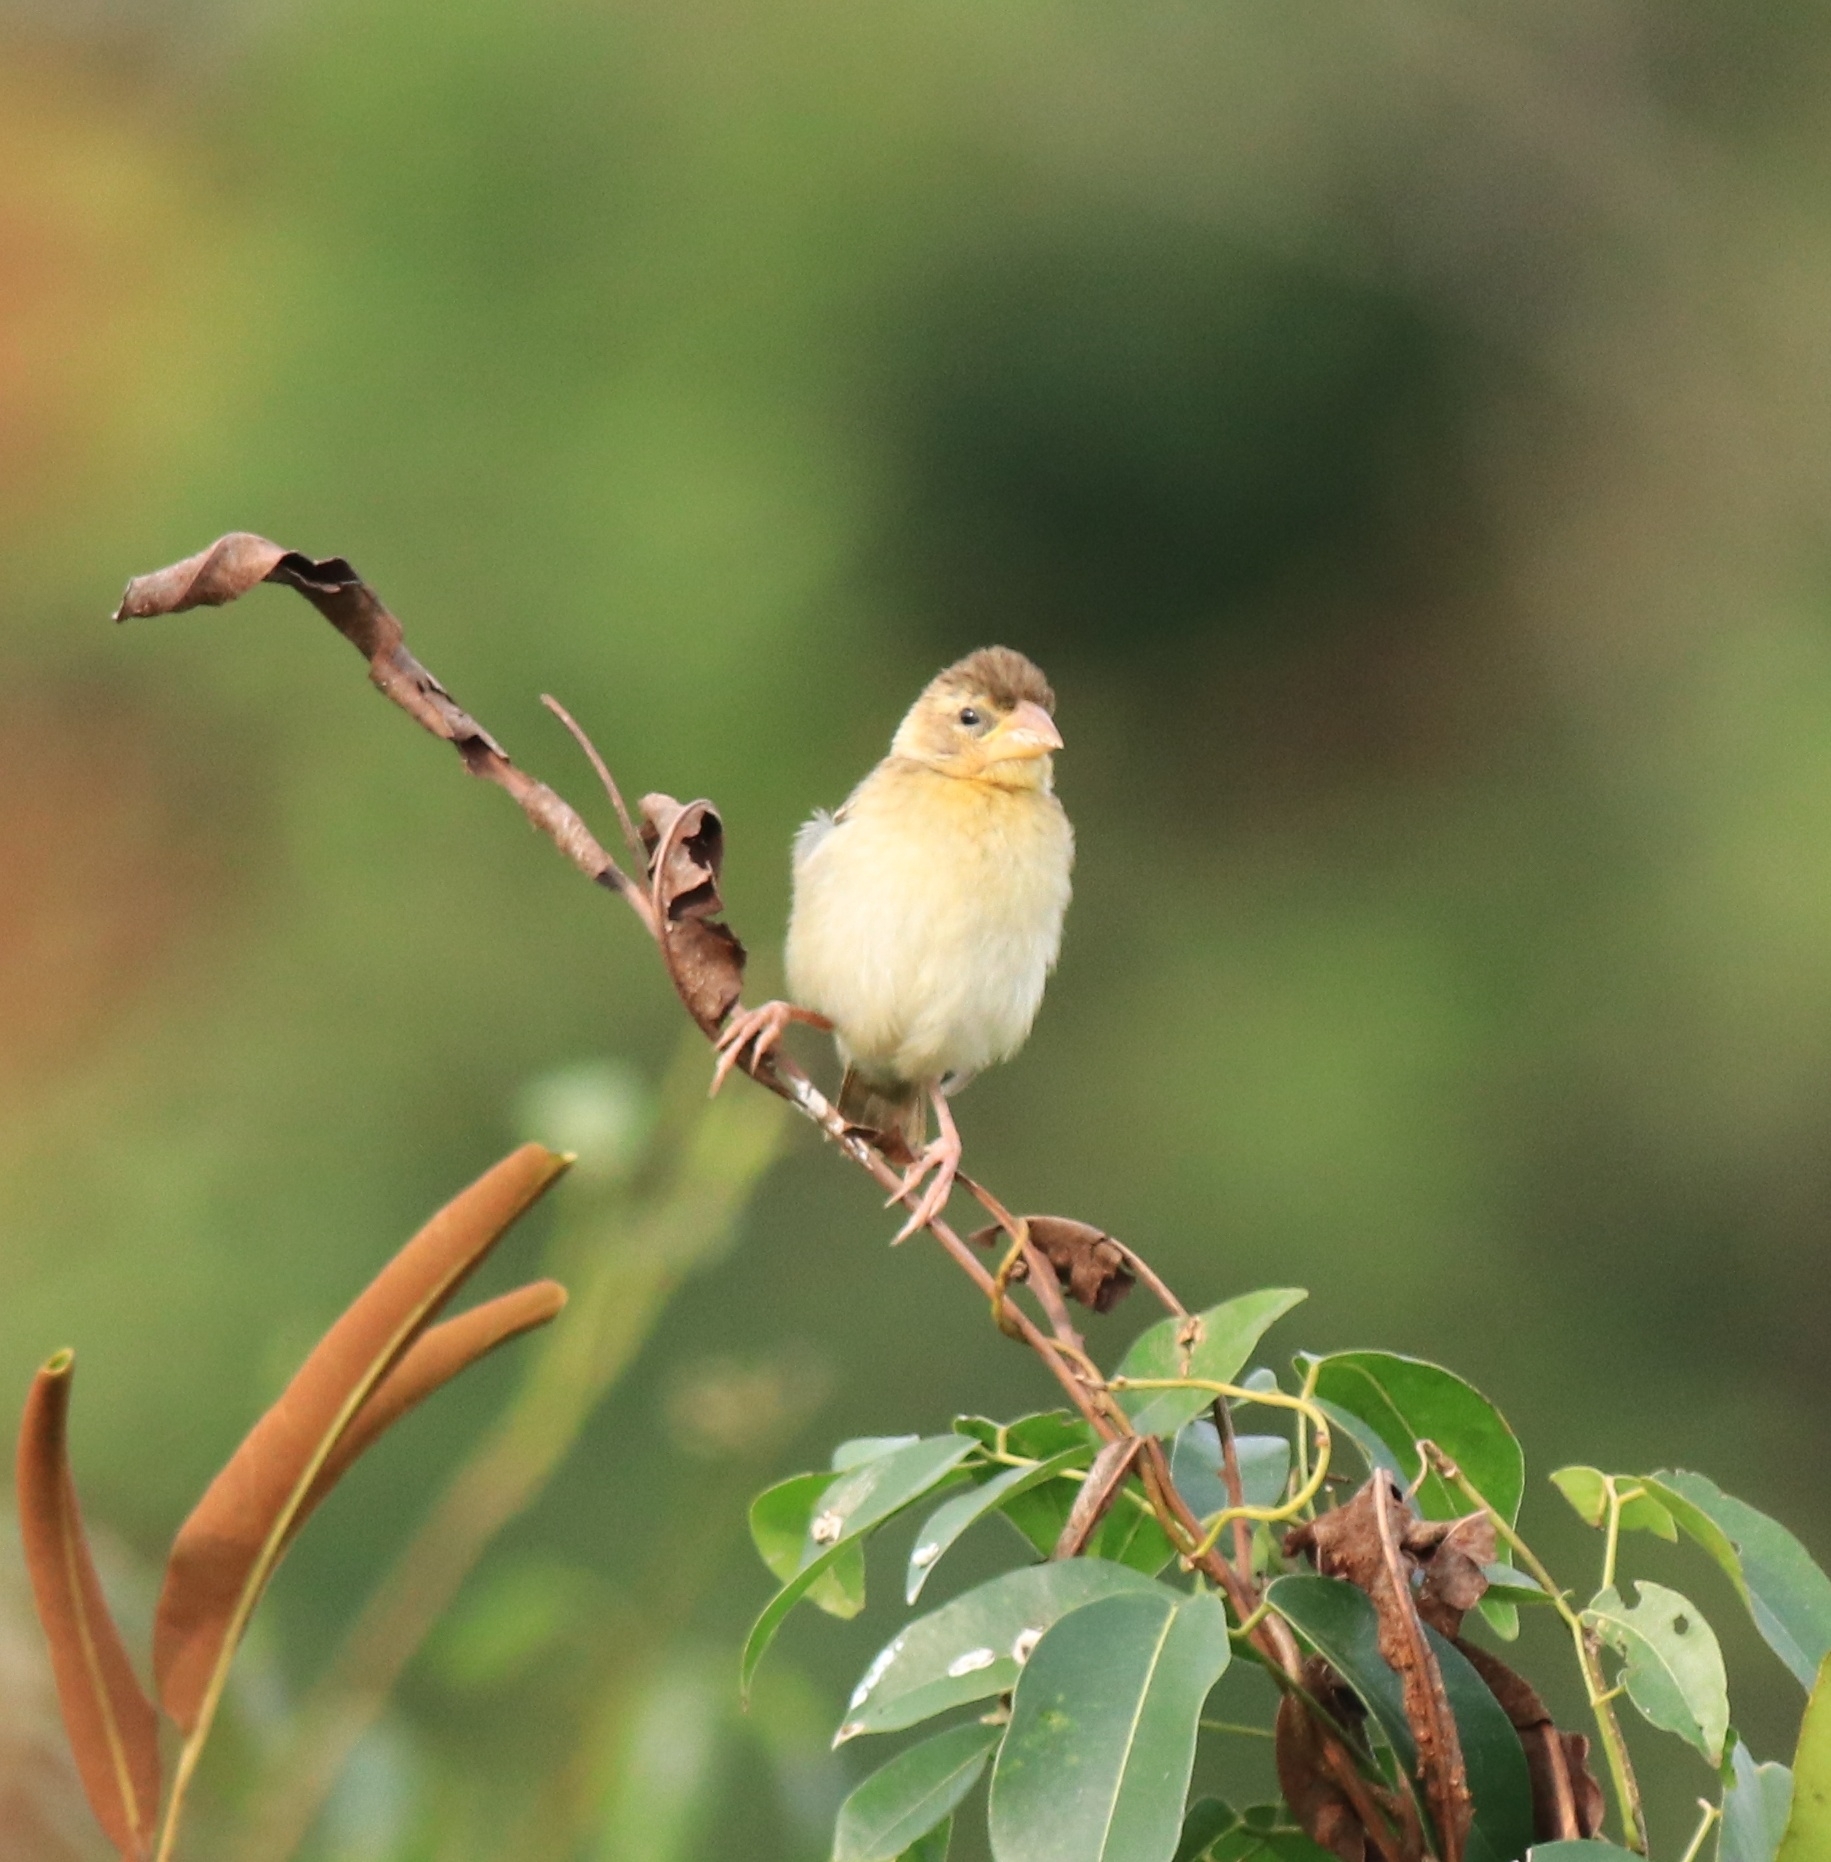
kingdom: Animalia
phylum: Chordata
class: Aves
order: Passeriformes
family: Ploceidae
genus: Ploceus
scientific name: Ploceus philippinus
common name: Baya weaver
